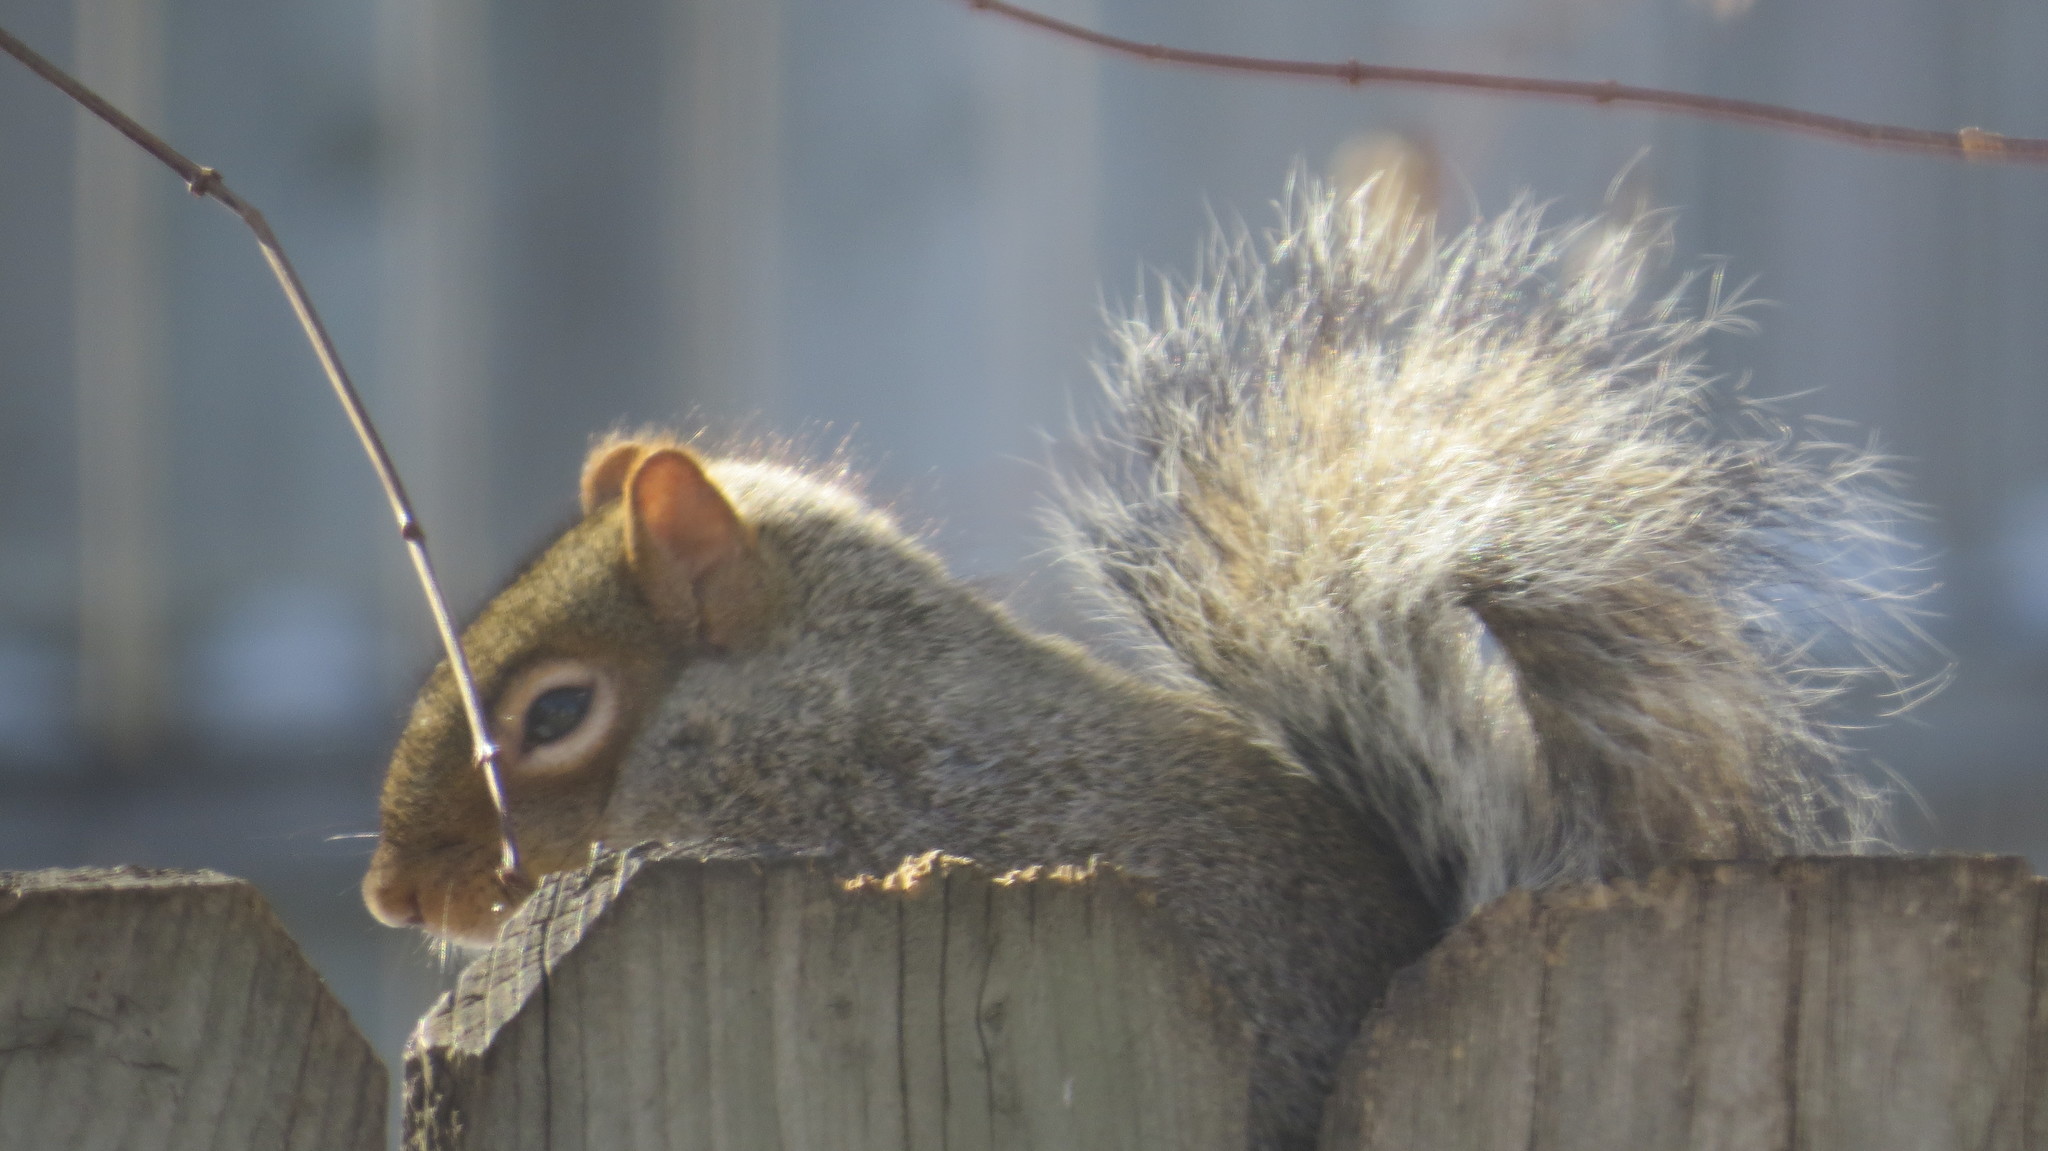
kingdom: Animalia
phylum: Chordata
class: Mammalia
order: Rodentia
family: Sciuridae
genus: Sciurus
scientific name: Sciurus carolinensis
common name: Eastern gray squirrel
